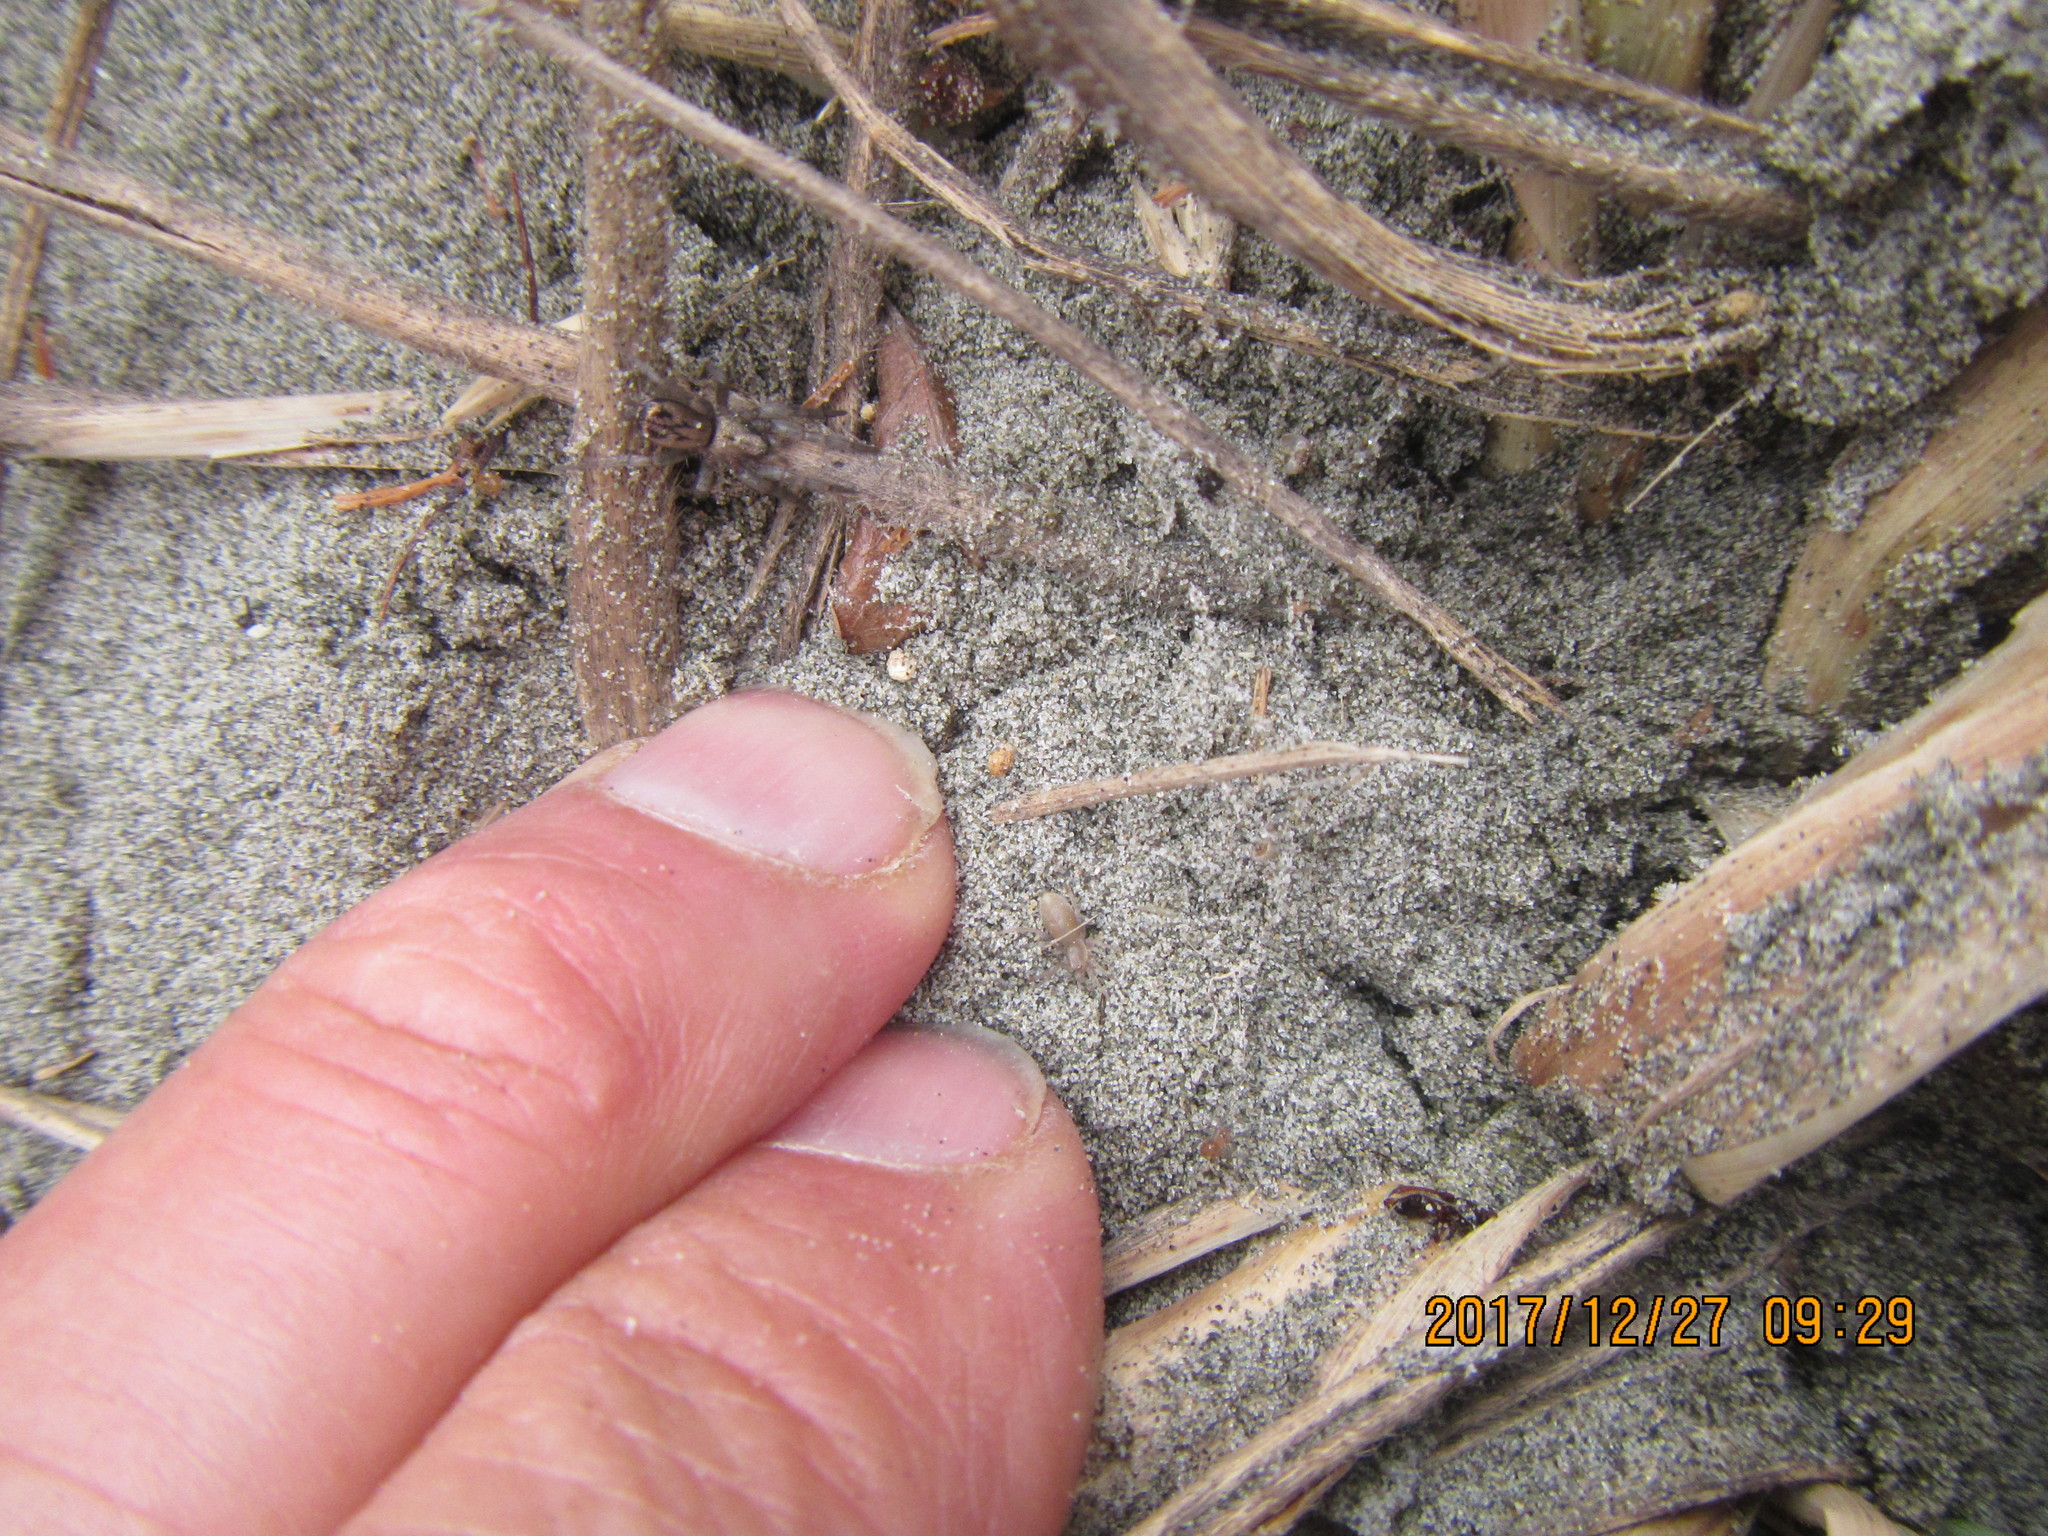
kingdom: Animalia
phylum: Arthropoda
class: Arachnida
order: Araneae
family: Gnaphosidae
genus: Scotophaeus
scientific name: Scotophaeus pretiosus
